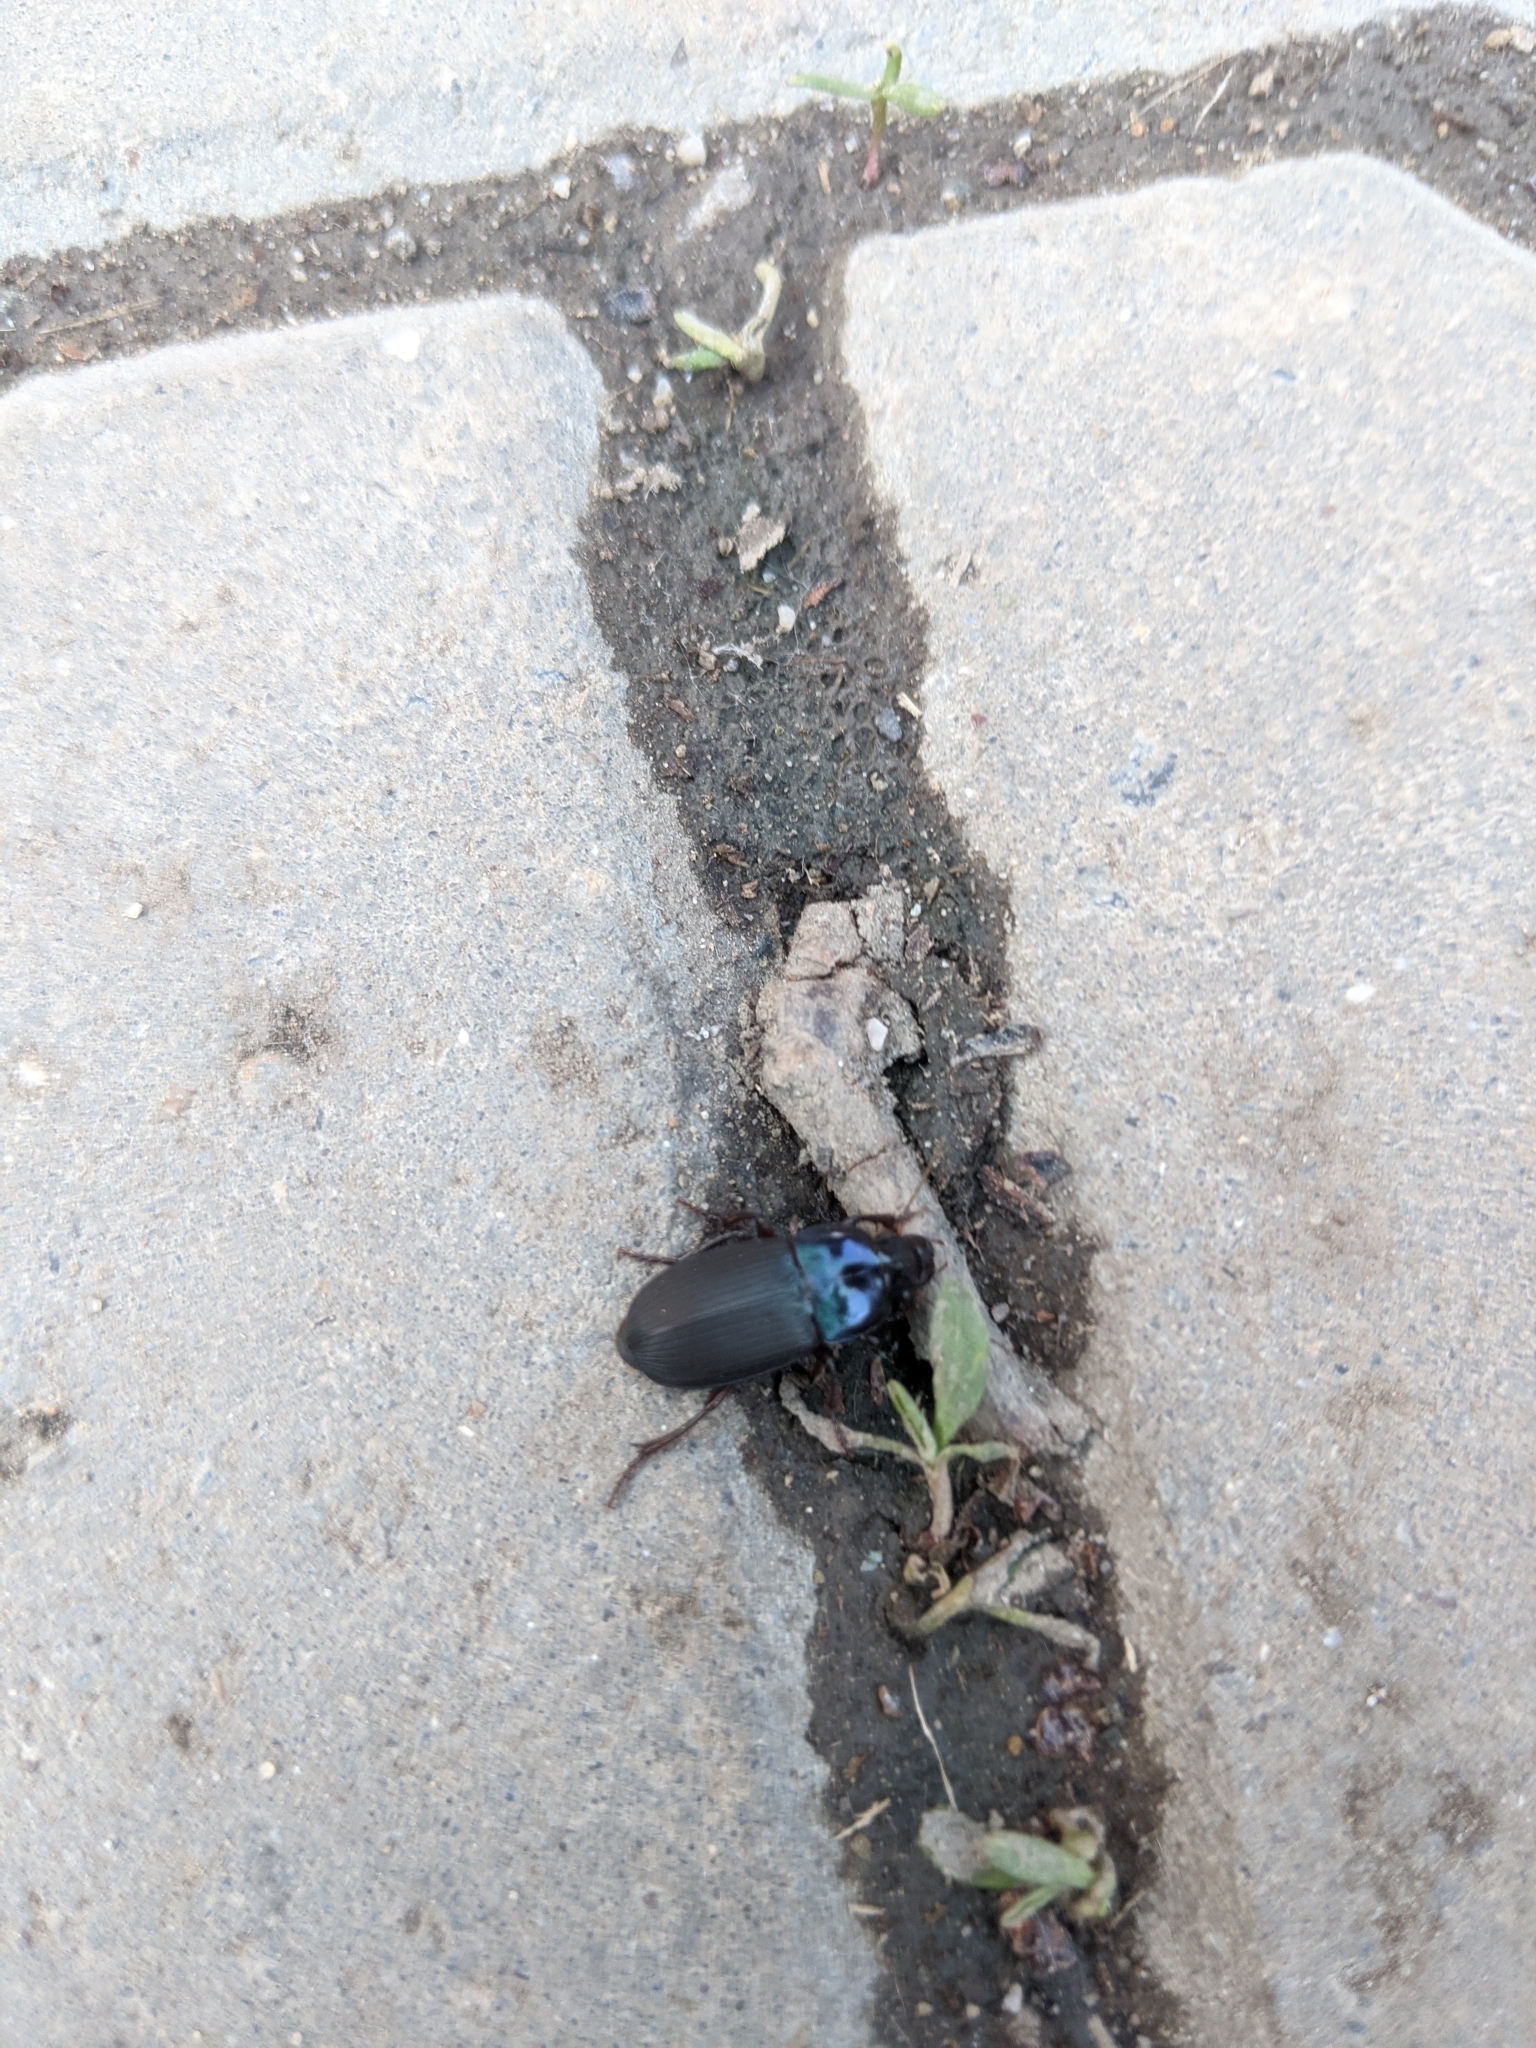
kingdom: Animalia
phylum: Arthropoda
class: Insecta
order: Coleoptera
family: Carabidae
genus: Harpalus
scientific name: Harpalus dimidiatus
